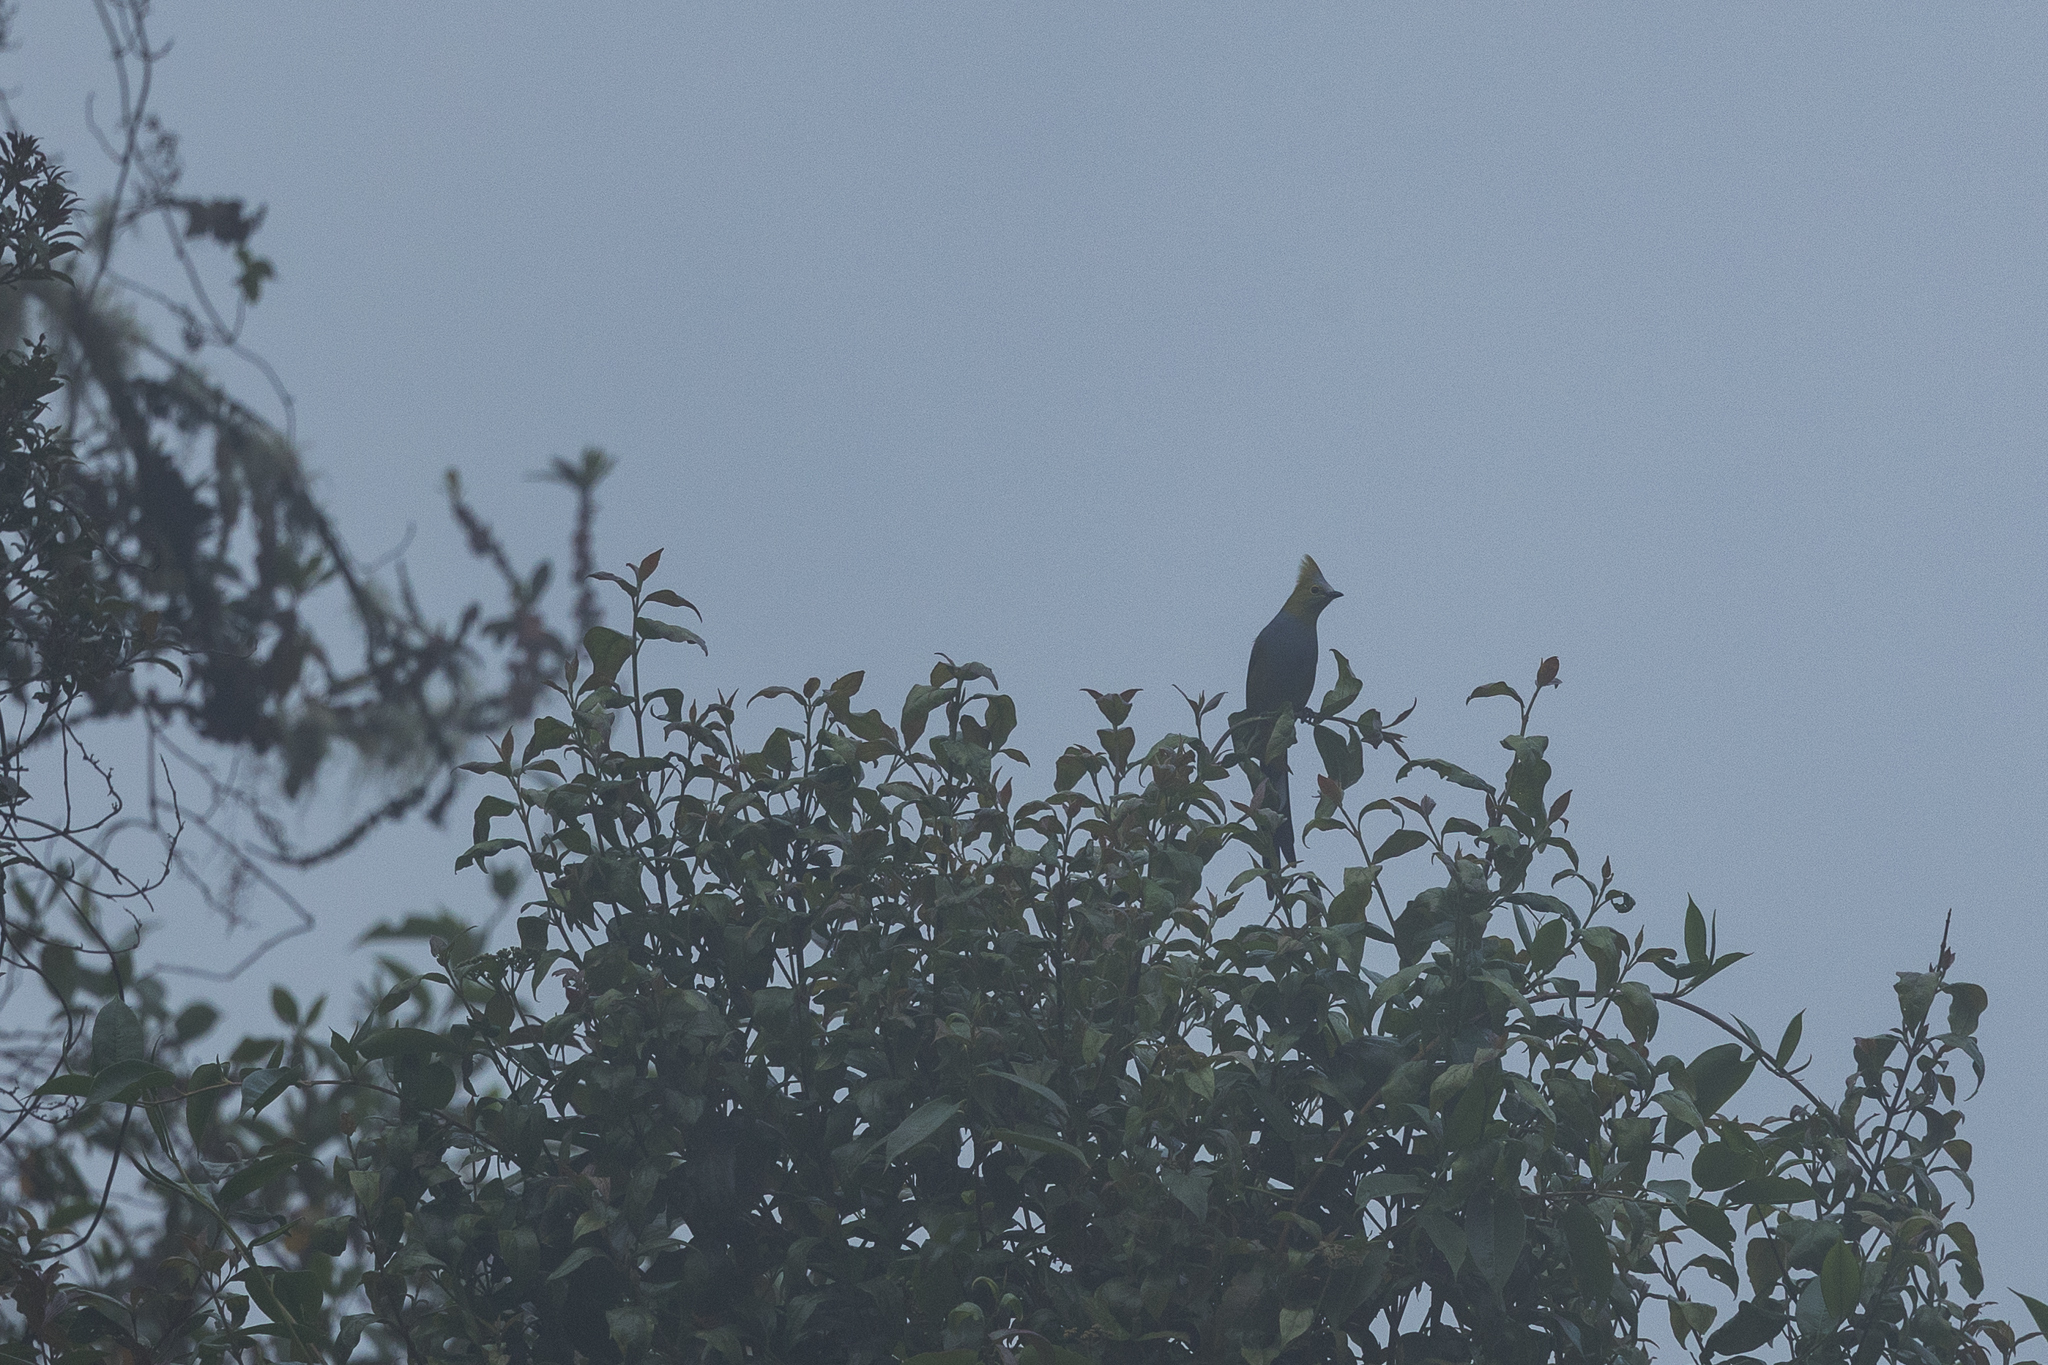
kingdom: Animalia
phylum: Chordata
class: Aves
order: Passeriformes
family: Ptilogonatidae
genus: Ptilogonys
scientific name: Ptilogonys caudatus
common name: Long-tailed silky-flycatcher
